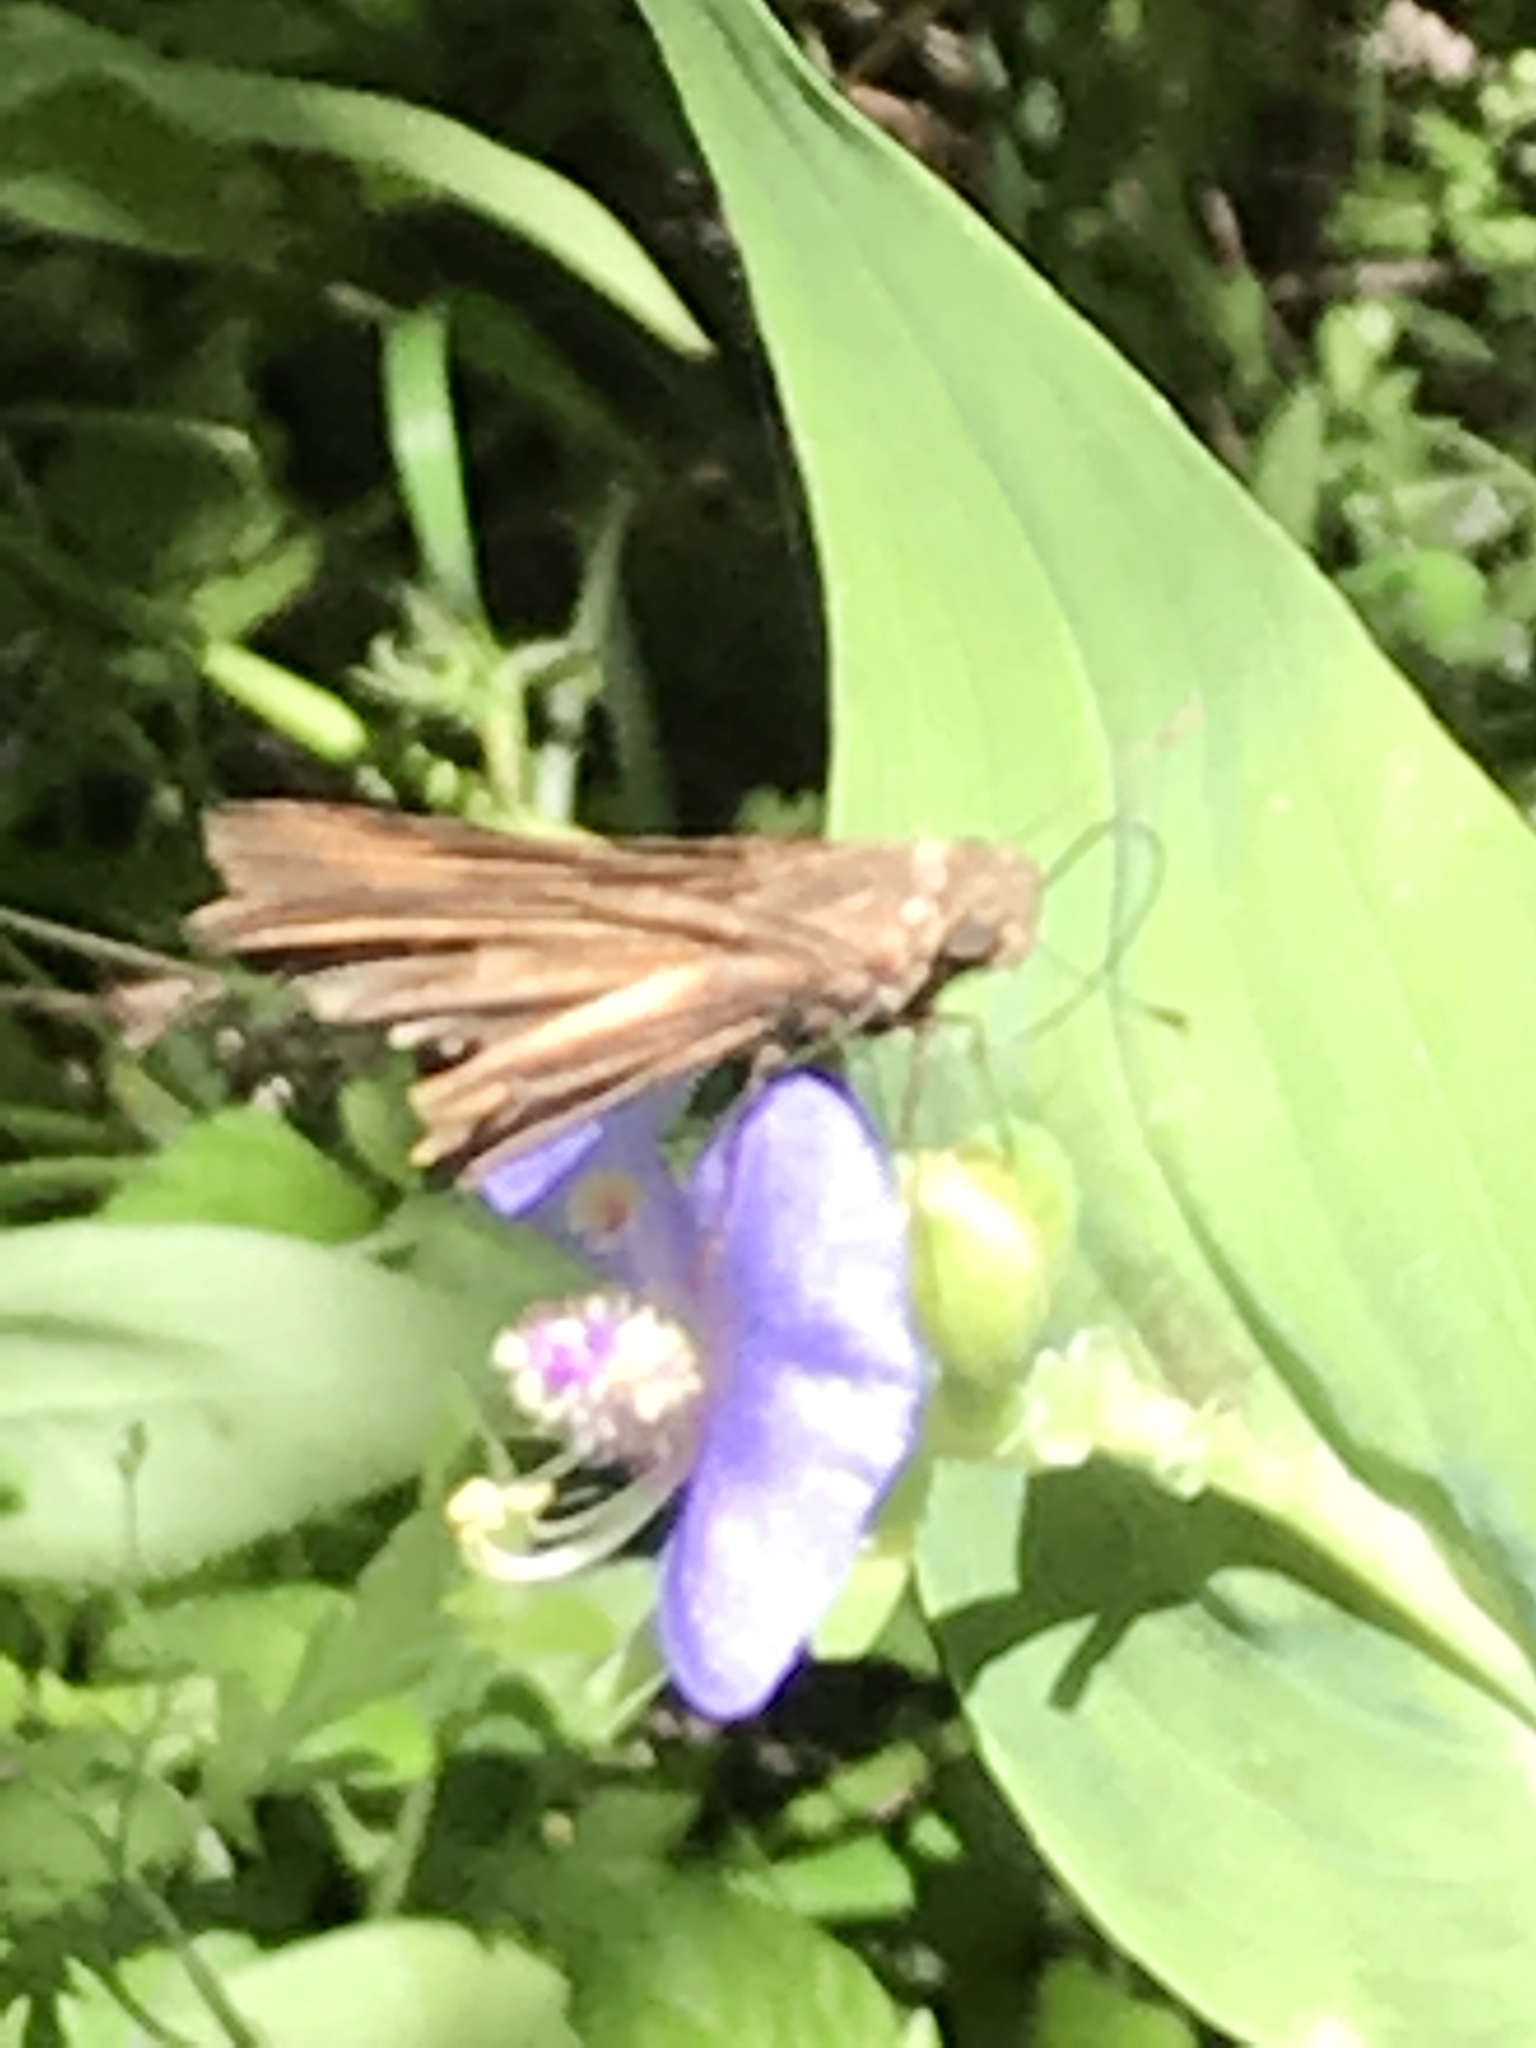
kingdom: Animalia
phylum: Arthropoda
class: Insecta
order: Lepidoptera
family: Hesperiidae
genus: Panoquina
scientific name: Panoquina ocola
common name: Ocola skipper
